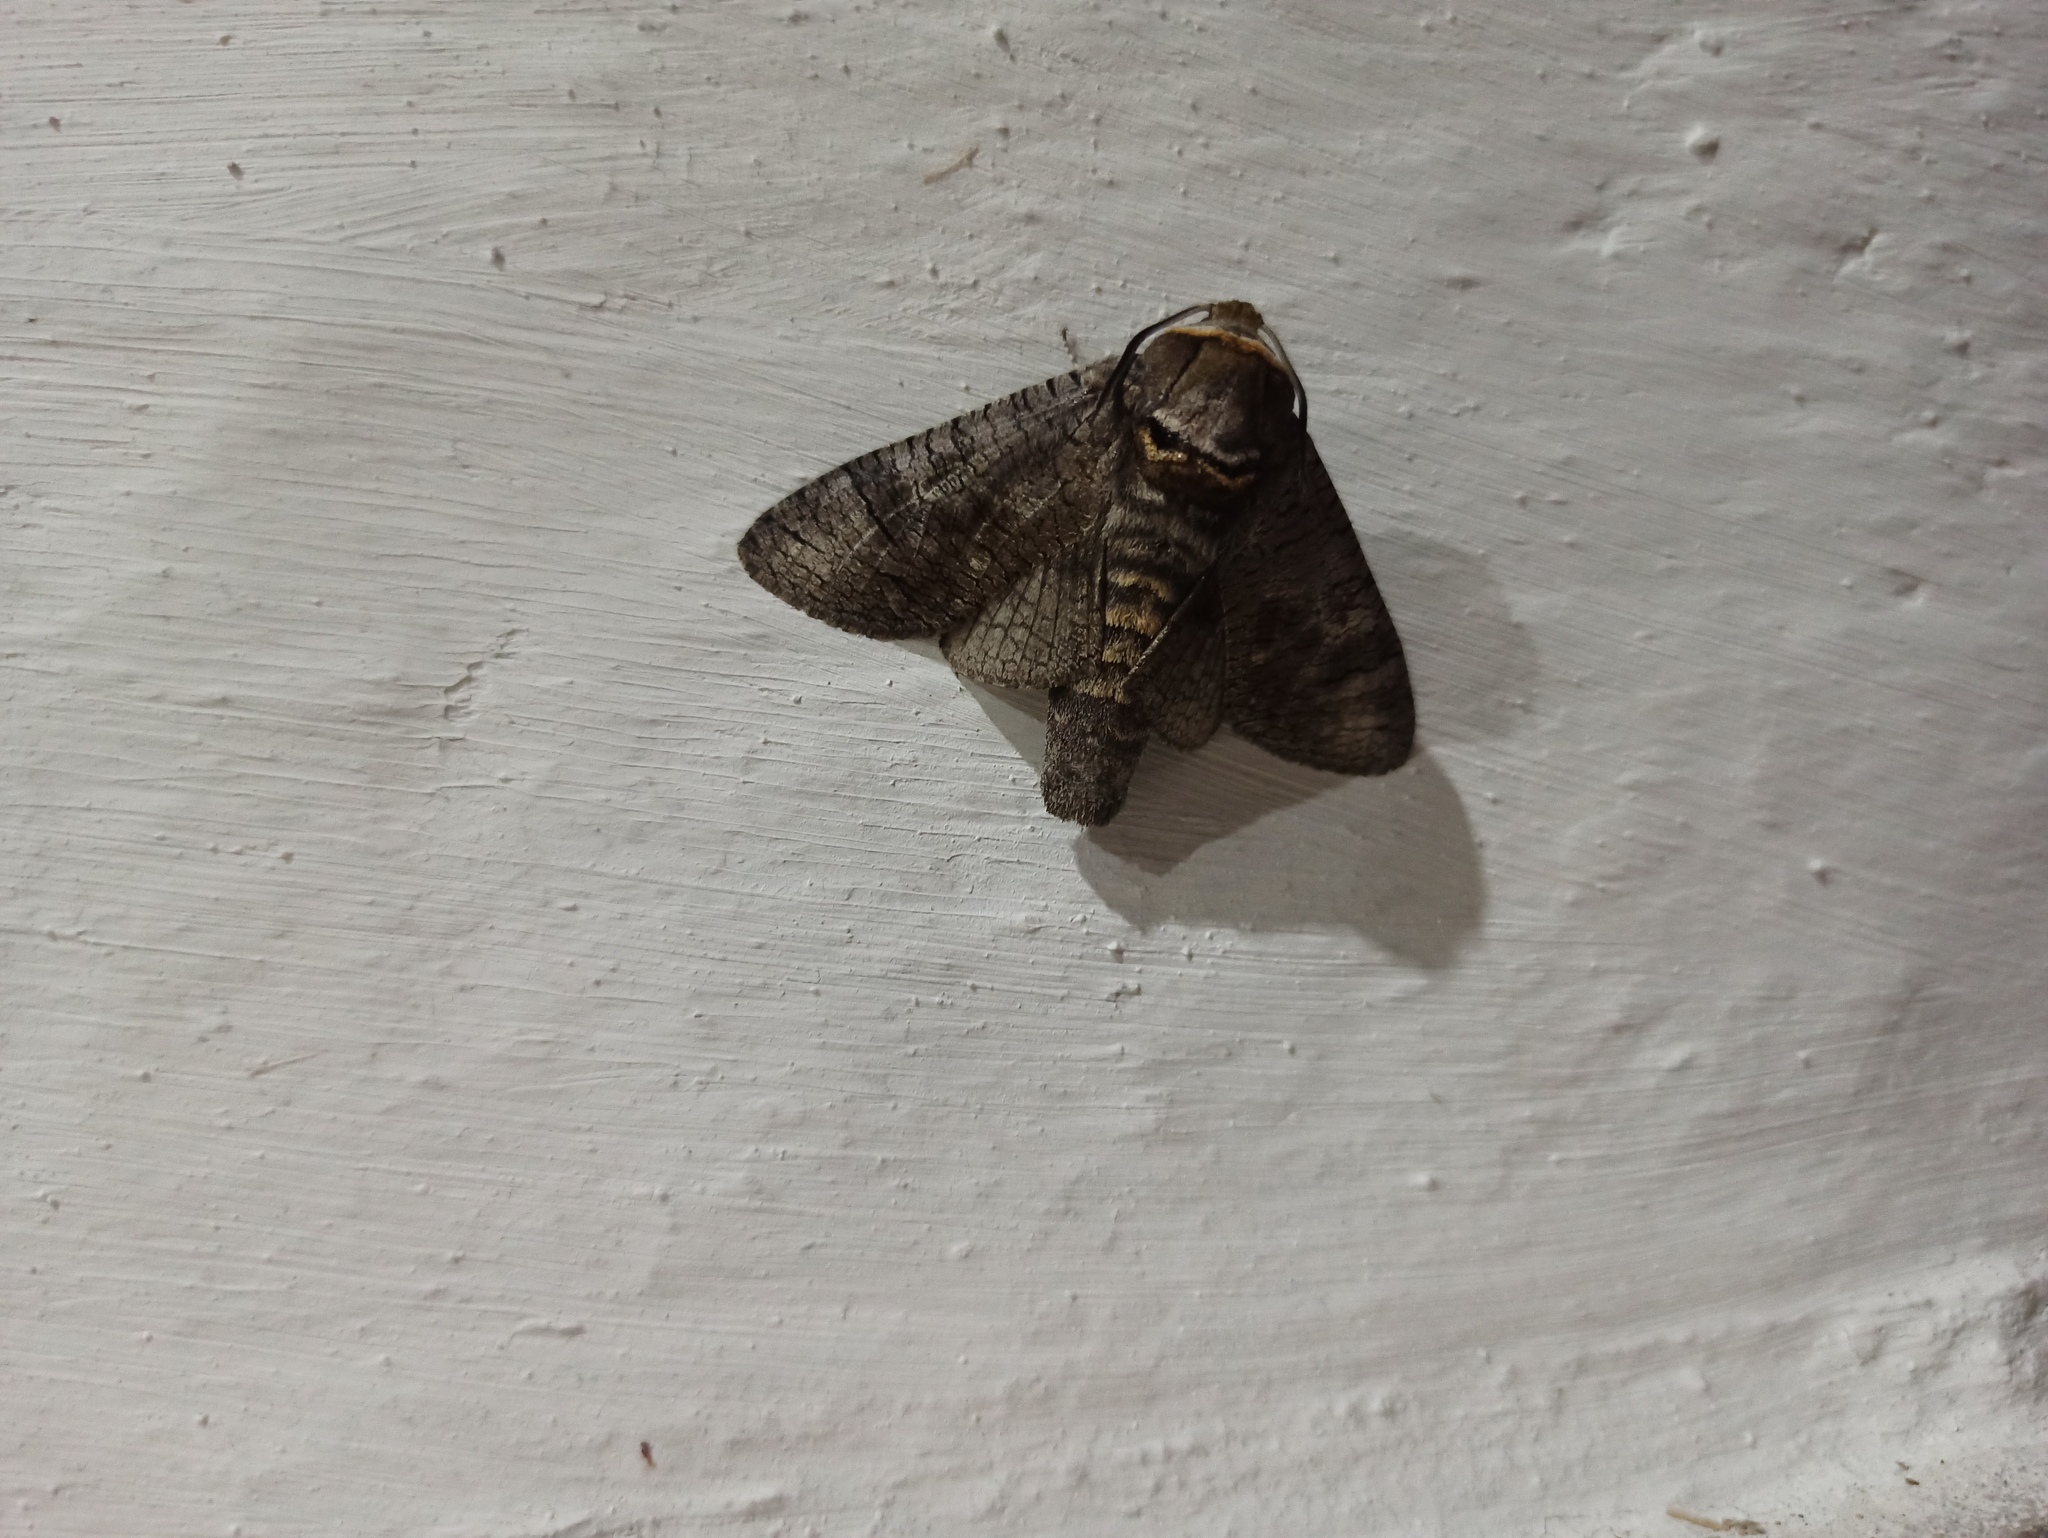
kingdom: Animalia
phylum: Arthropoda
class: Insecta
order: Lepidoptera
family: Cossidae
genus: Cossus
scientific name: Cossus cossus
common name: Goat moth
